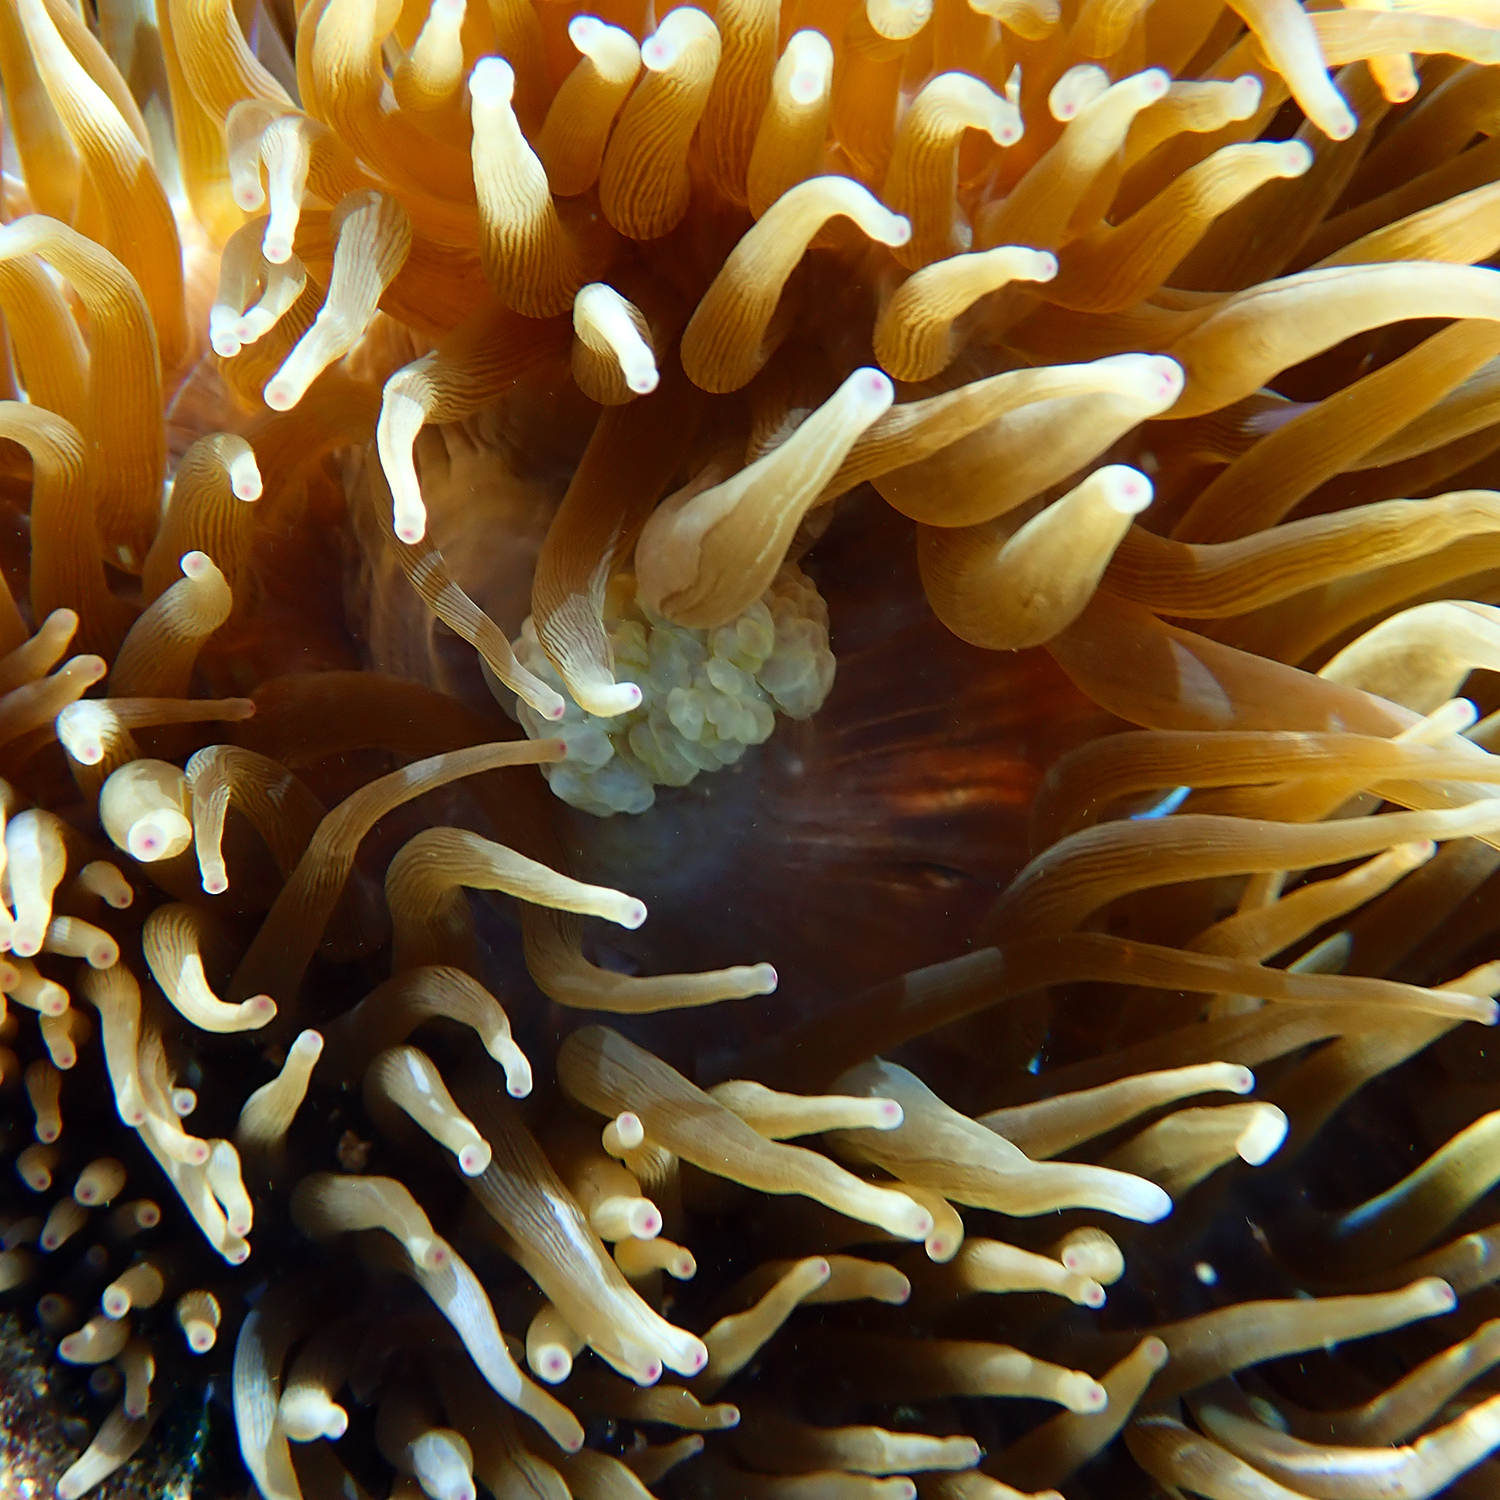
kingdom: Animalia
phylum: Cnidaria
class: Anthozoa
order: Actiniaria
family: Actiniidae
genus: Entacmaea
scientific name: Entacmaea quadricolor
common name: Bulb tentacle sea anemone
